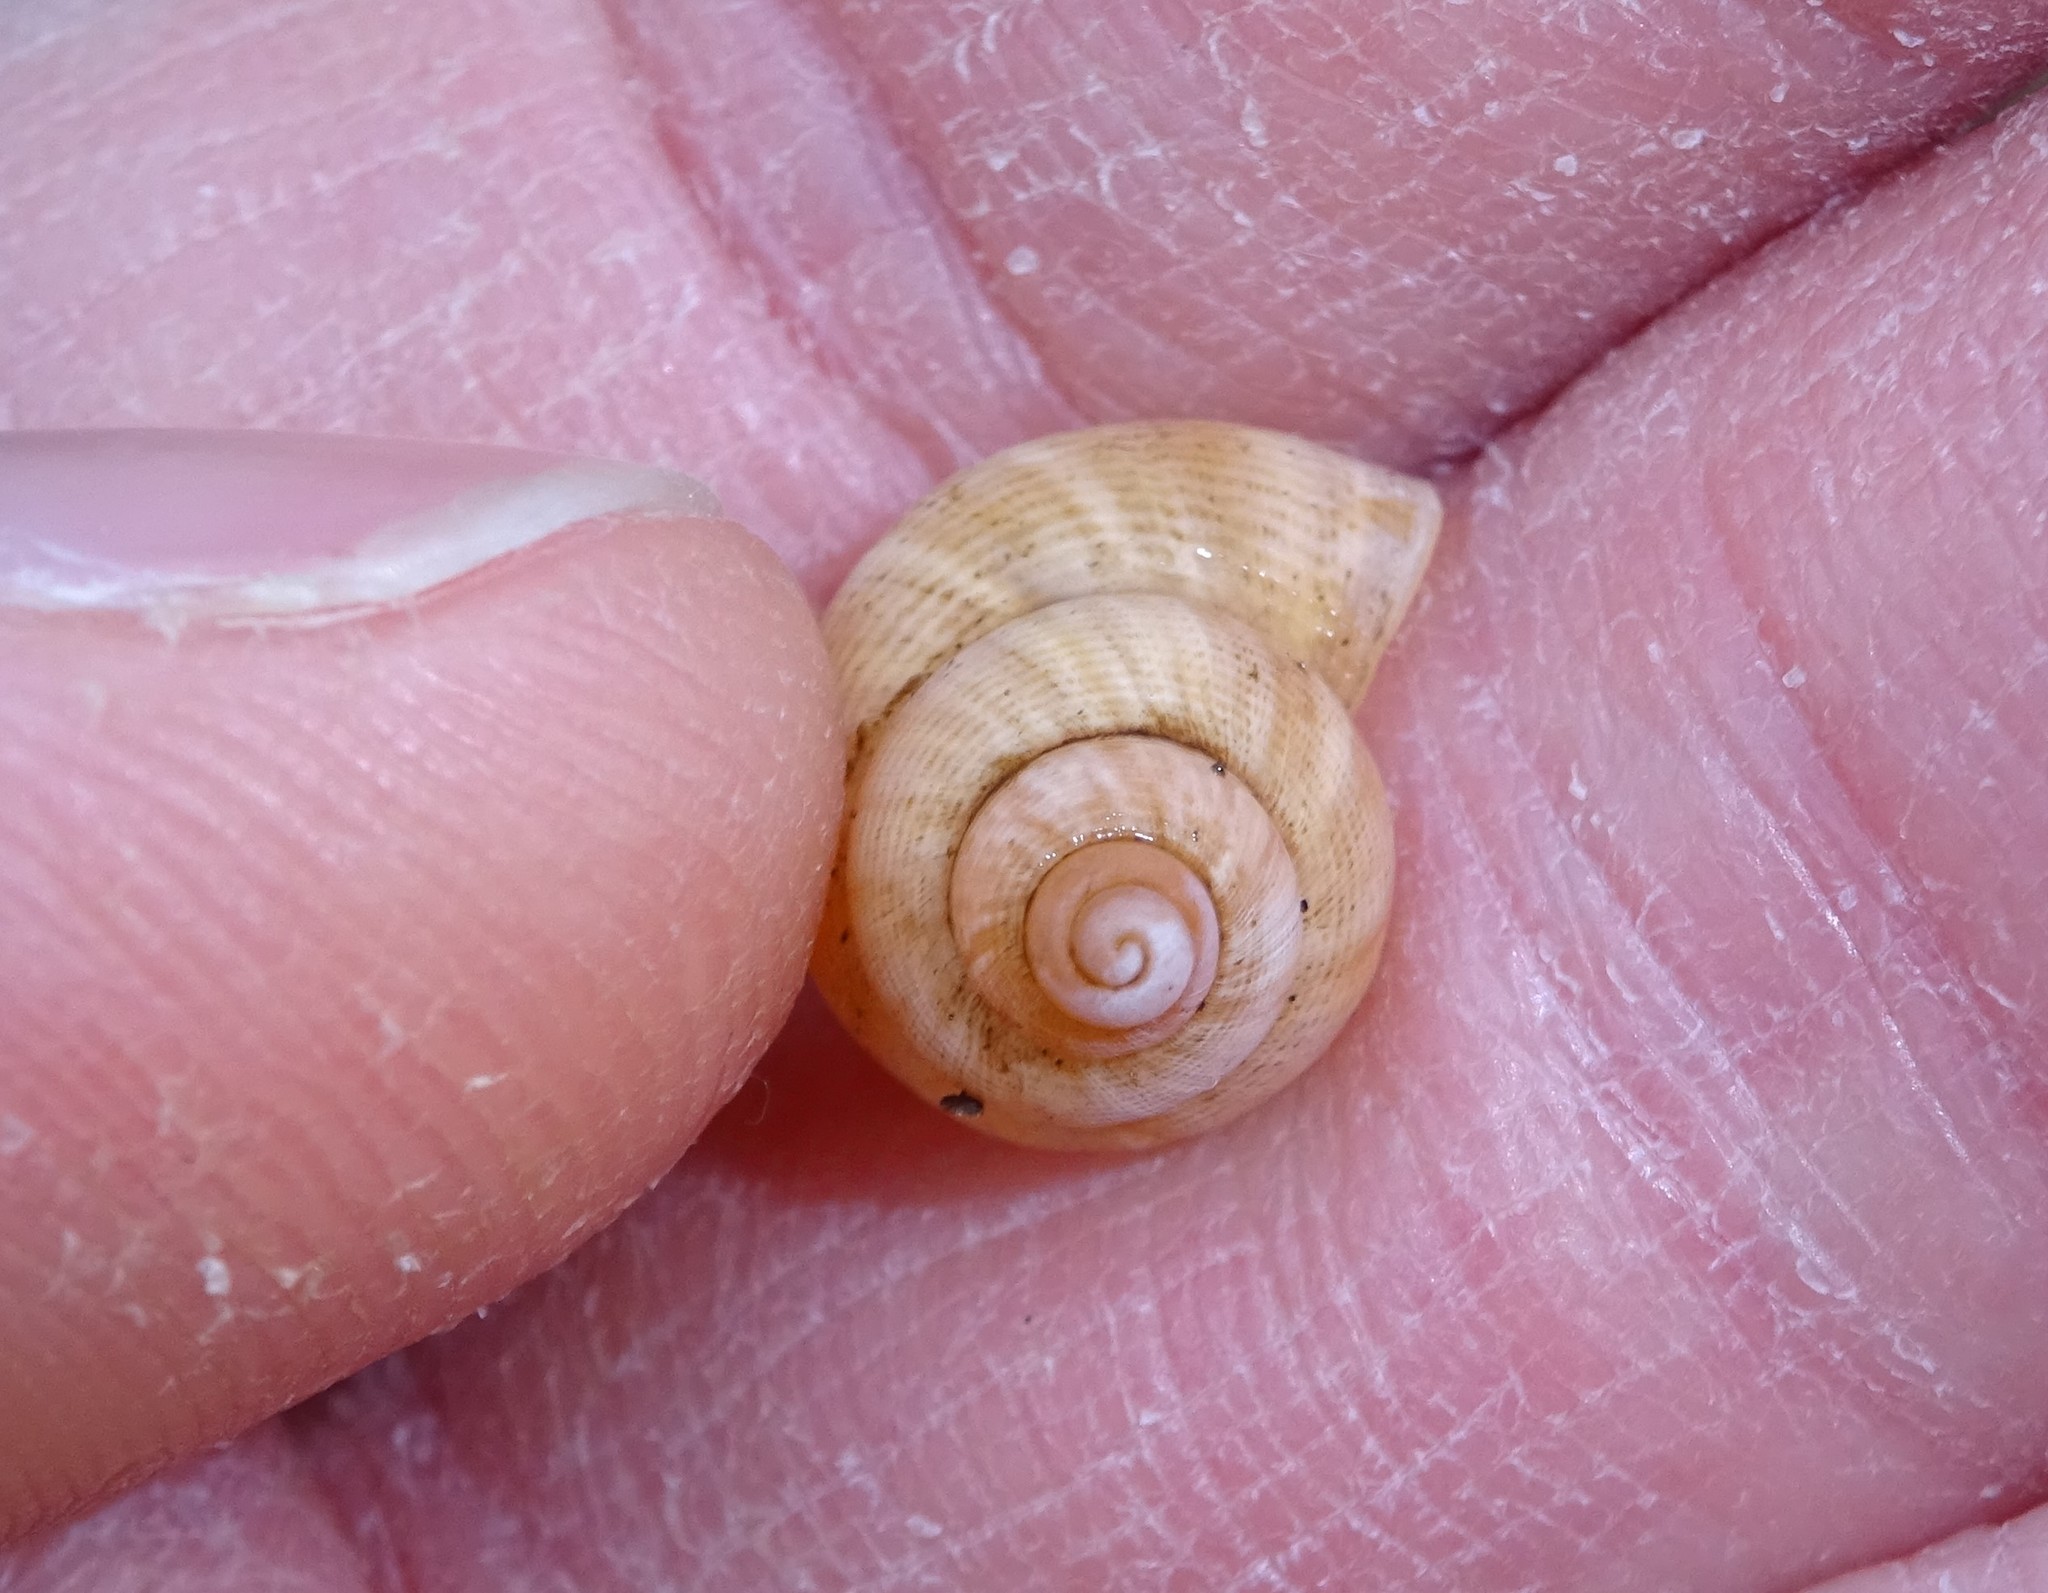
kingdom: Animalia
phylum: Mollusca
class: Gastropoda
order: Littorinimorpha
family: Pomatiidae
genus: Pomatias
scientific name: Pomatias elegans
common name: Red-mouthed snail
